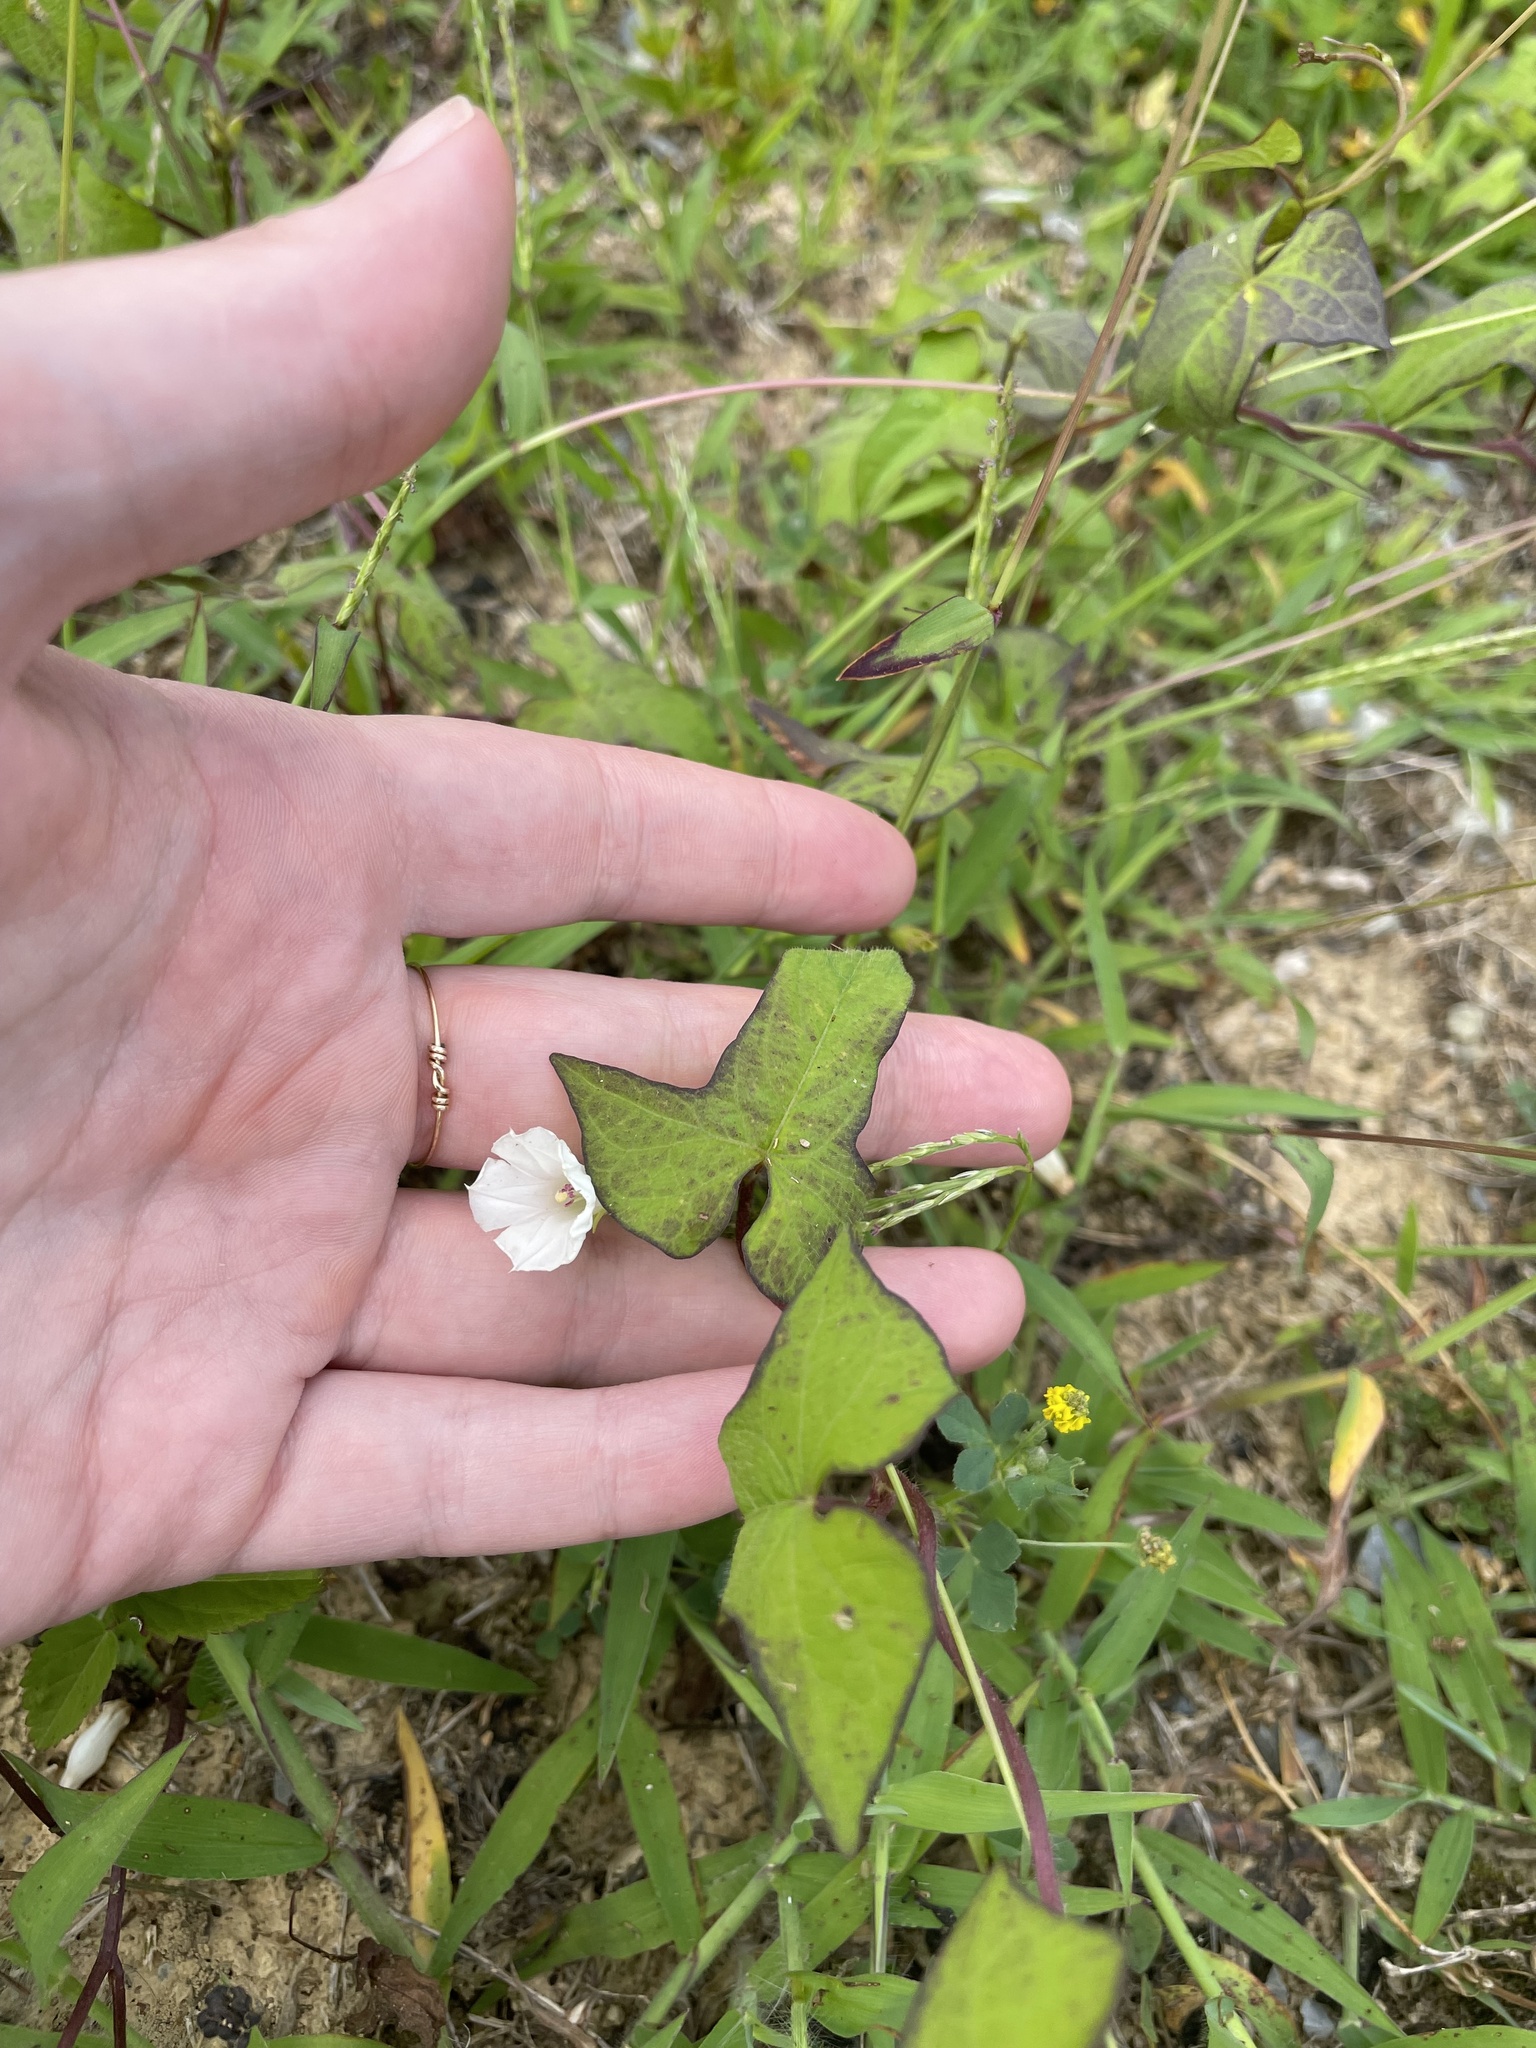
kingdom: Plantae
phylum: Tracheophyta
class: Magnoliopsida
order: Solanales
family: Convolvulaceae
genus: Ipomoea
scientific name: Ipomoea lacunosa
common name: White morning-glory
